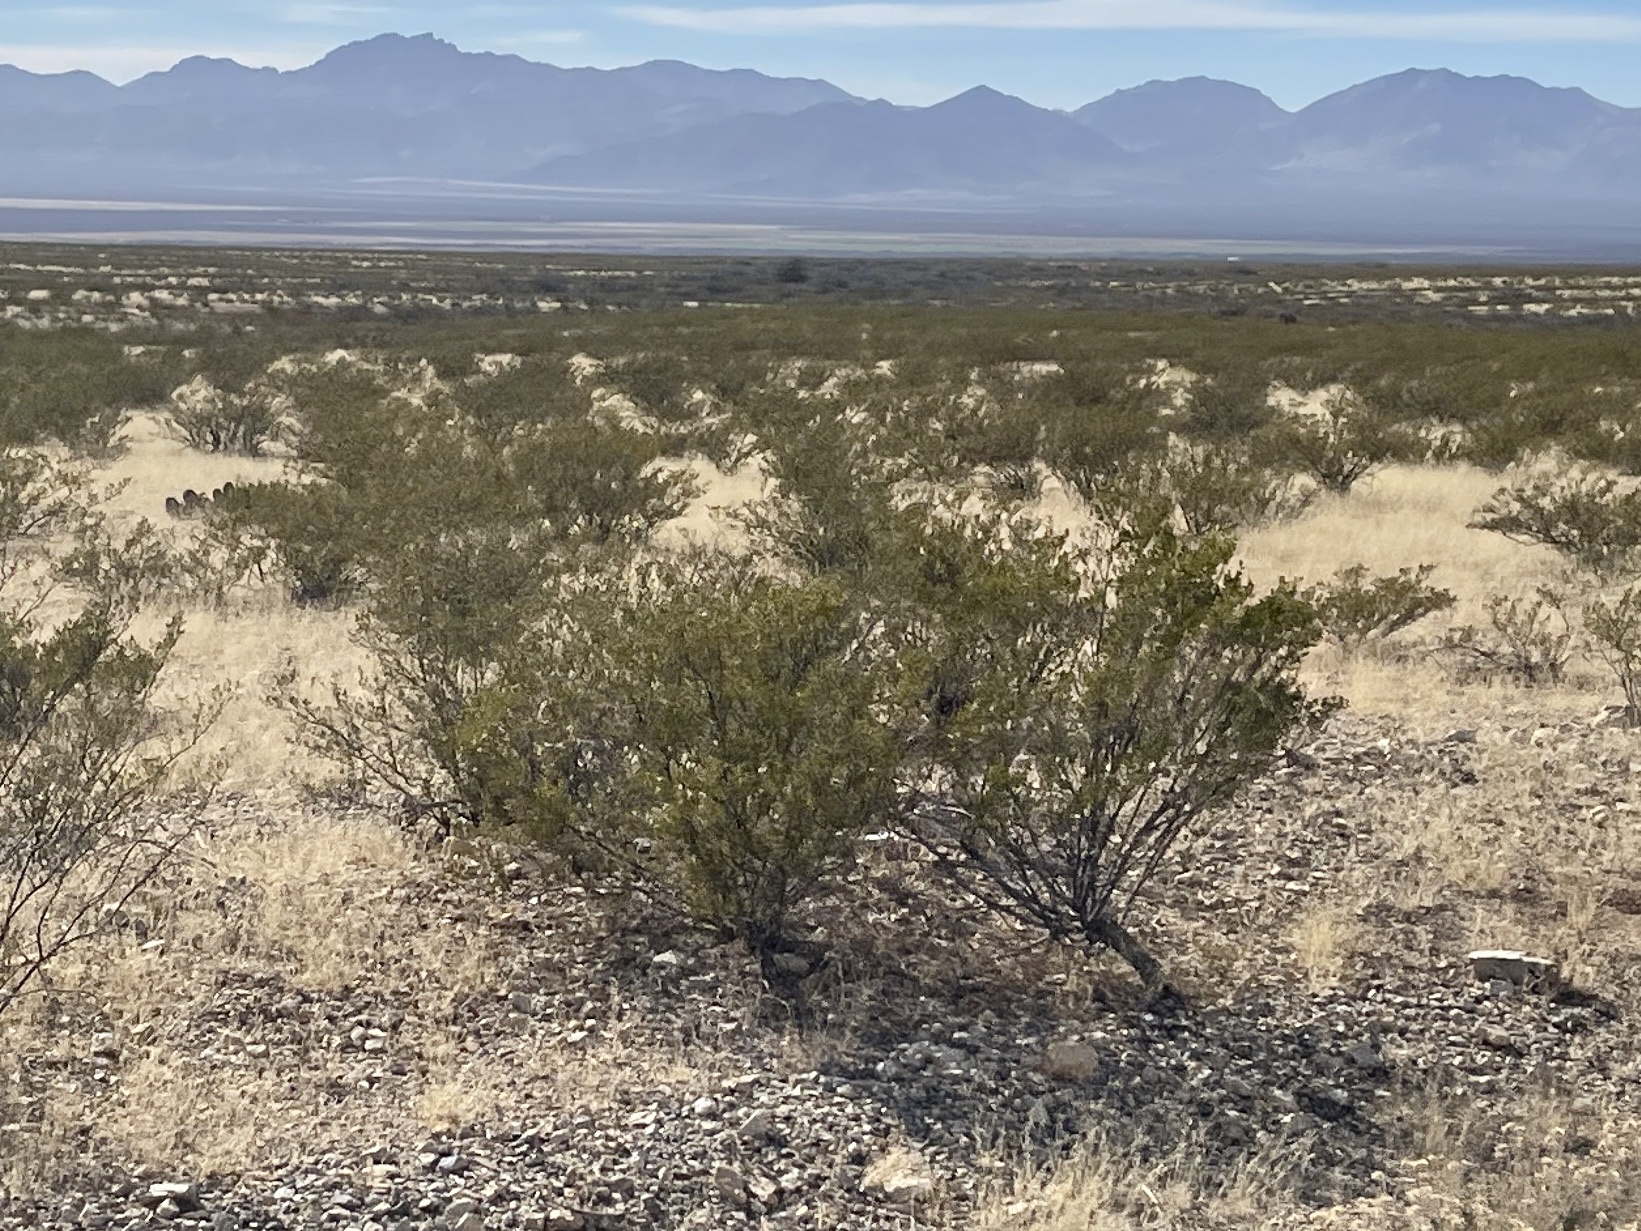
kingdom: Plantae
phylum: Tracheophyta
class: Magnoliopsida
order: Zygophyllales
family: Zygophyllaceae
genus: Larrea
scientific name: Larrea tridentata
